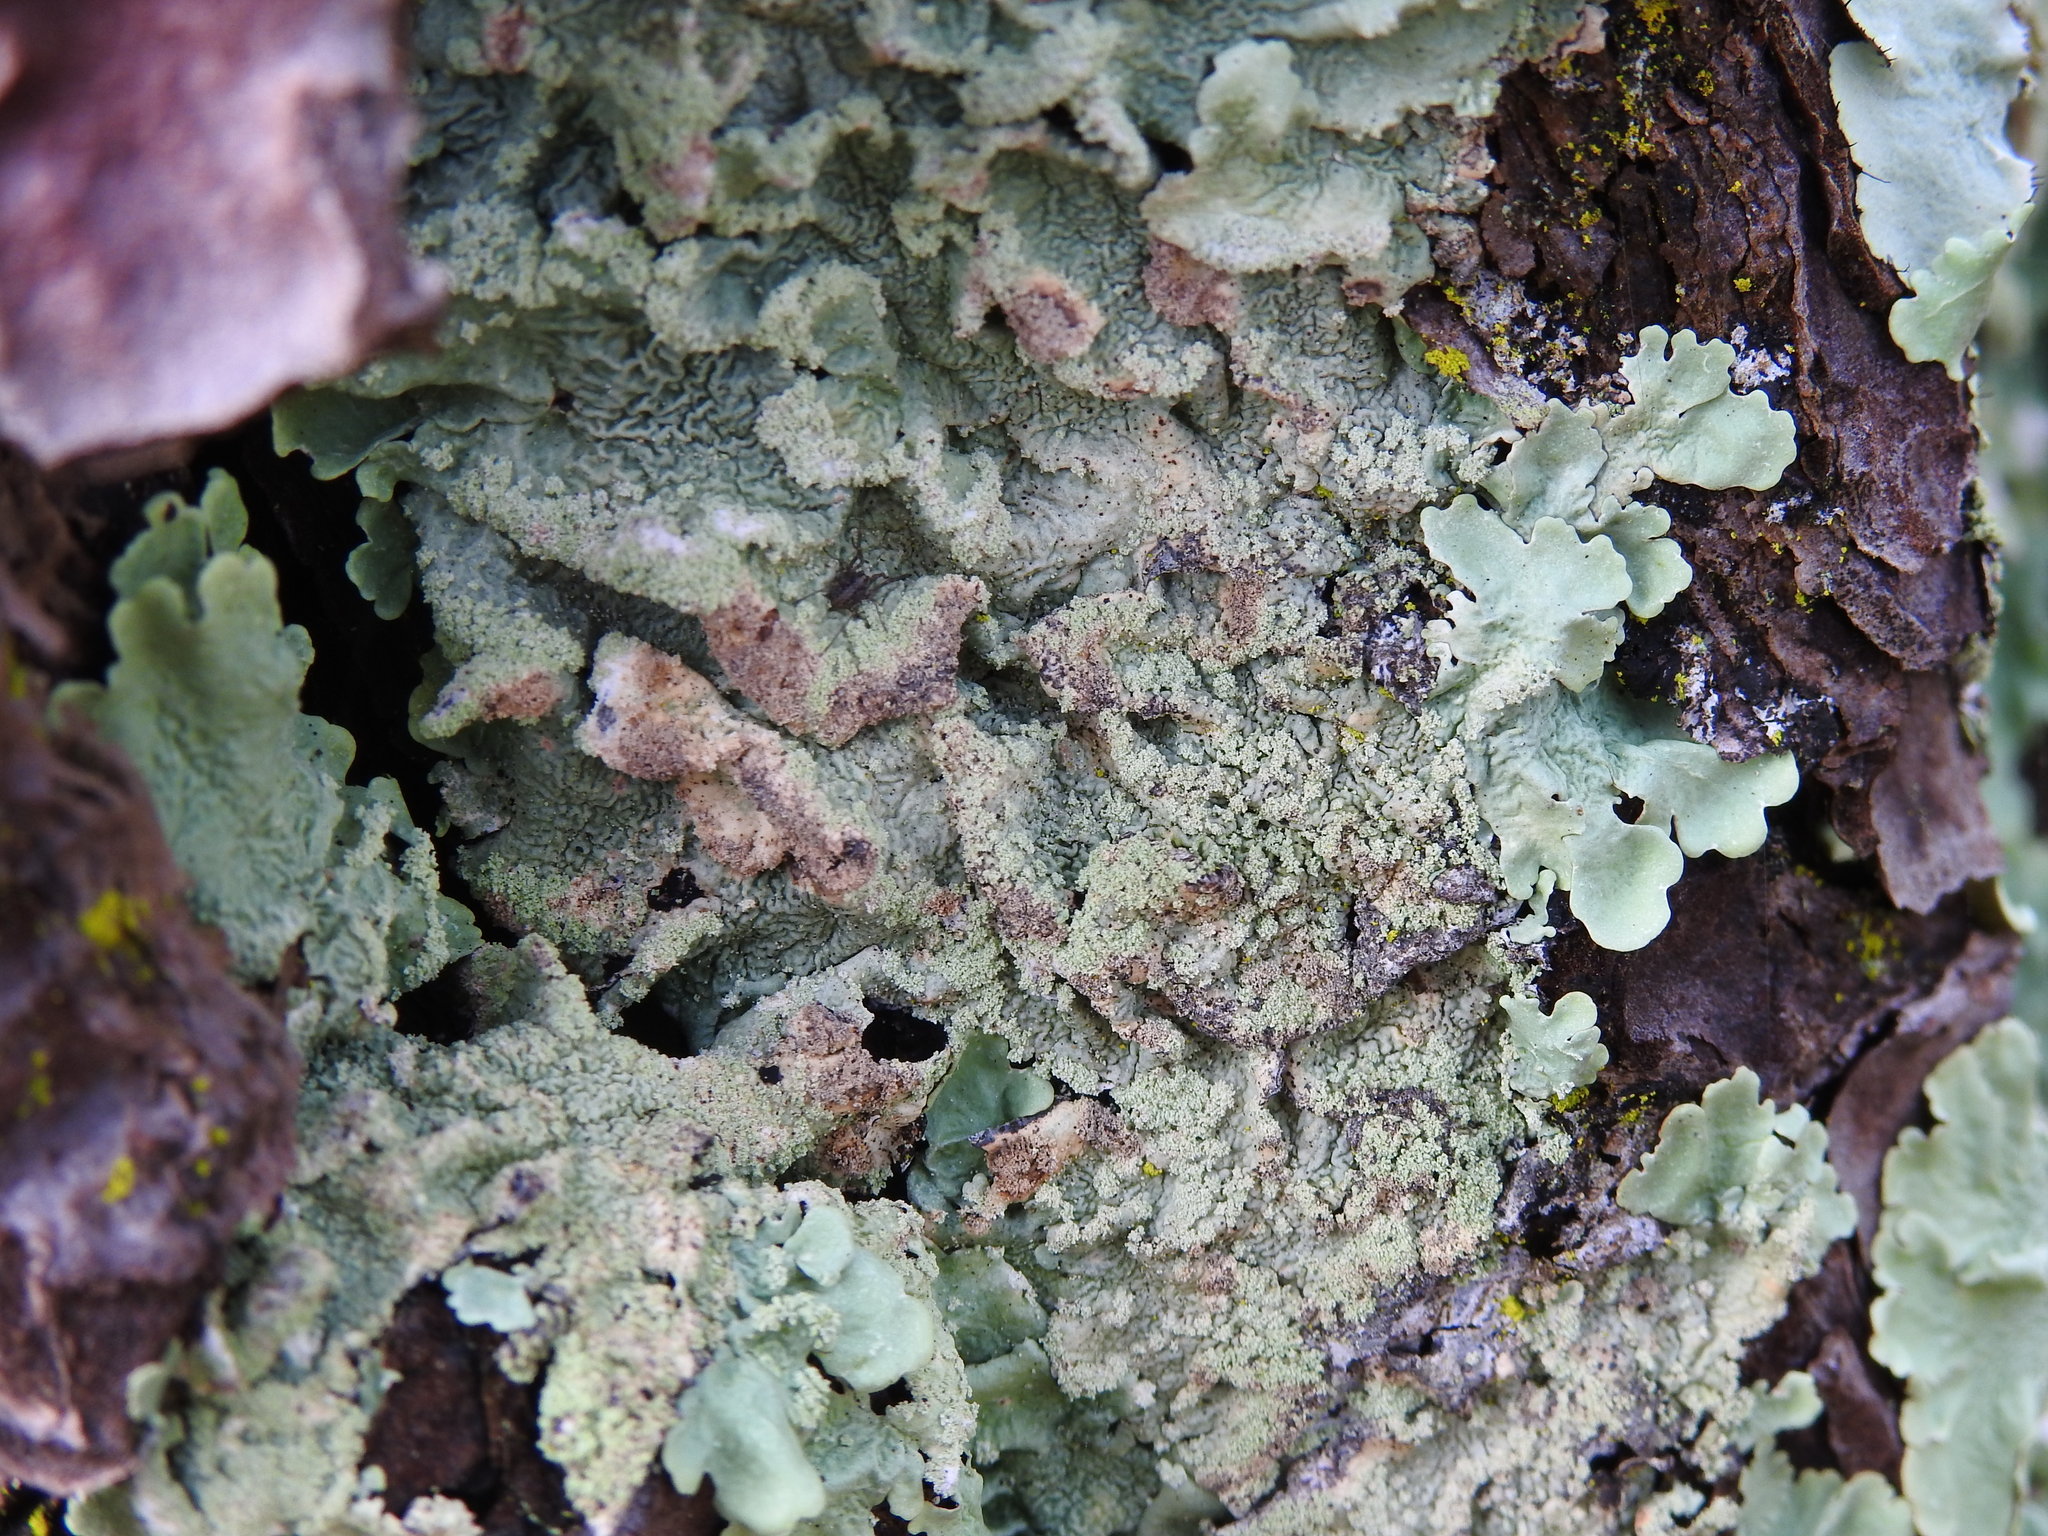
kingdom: Fungi
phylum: Ascomycota
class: Lecanoromycetes
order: Lecanorales
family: Parmeliaceae
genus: Flavoparmelia
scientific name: Flavoparmelia caperata
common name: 40-mile per hour lichen
